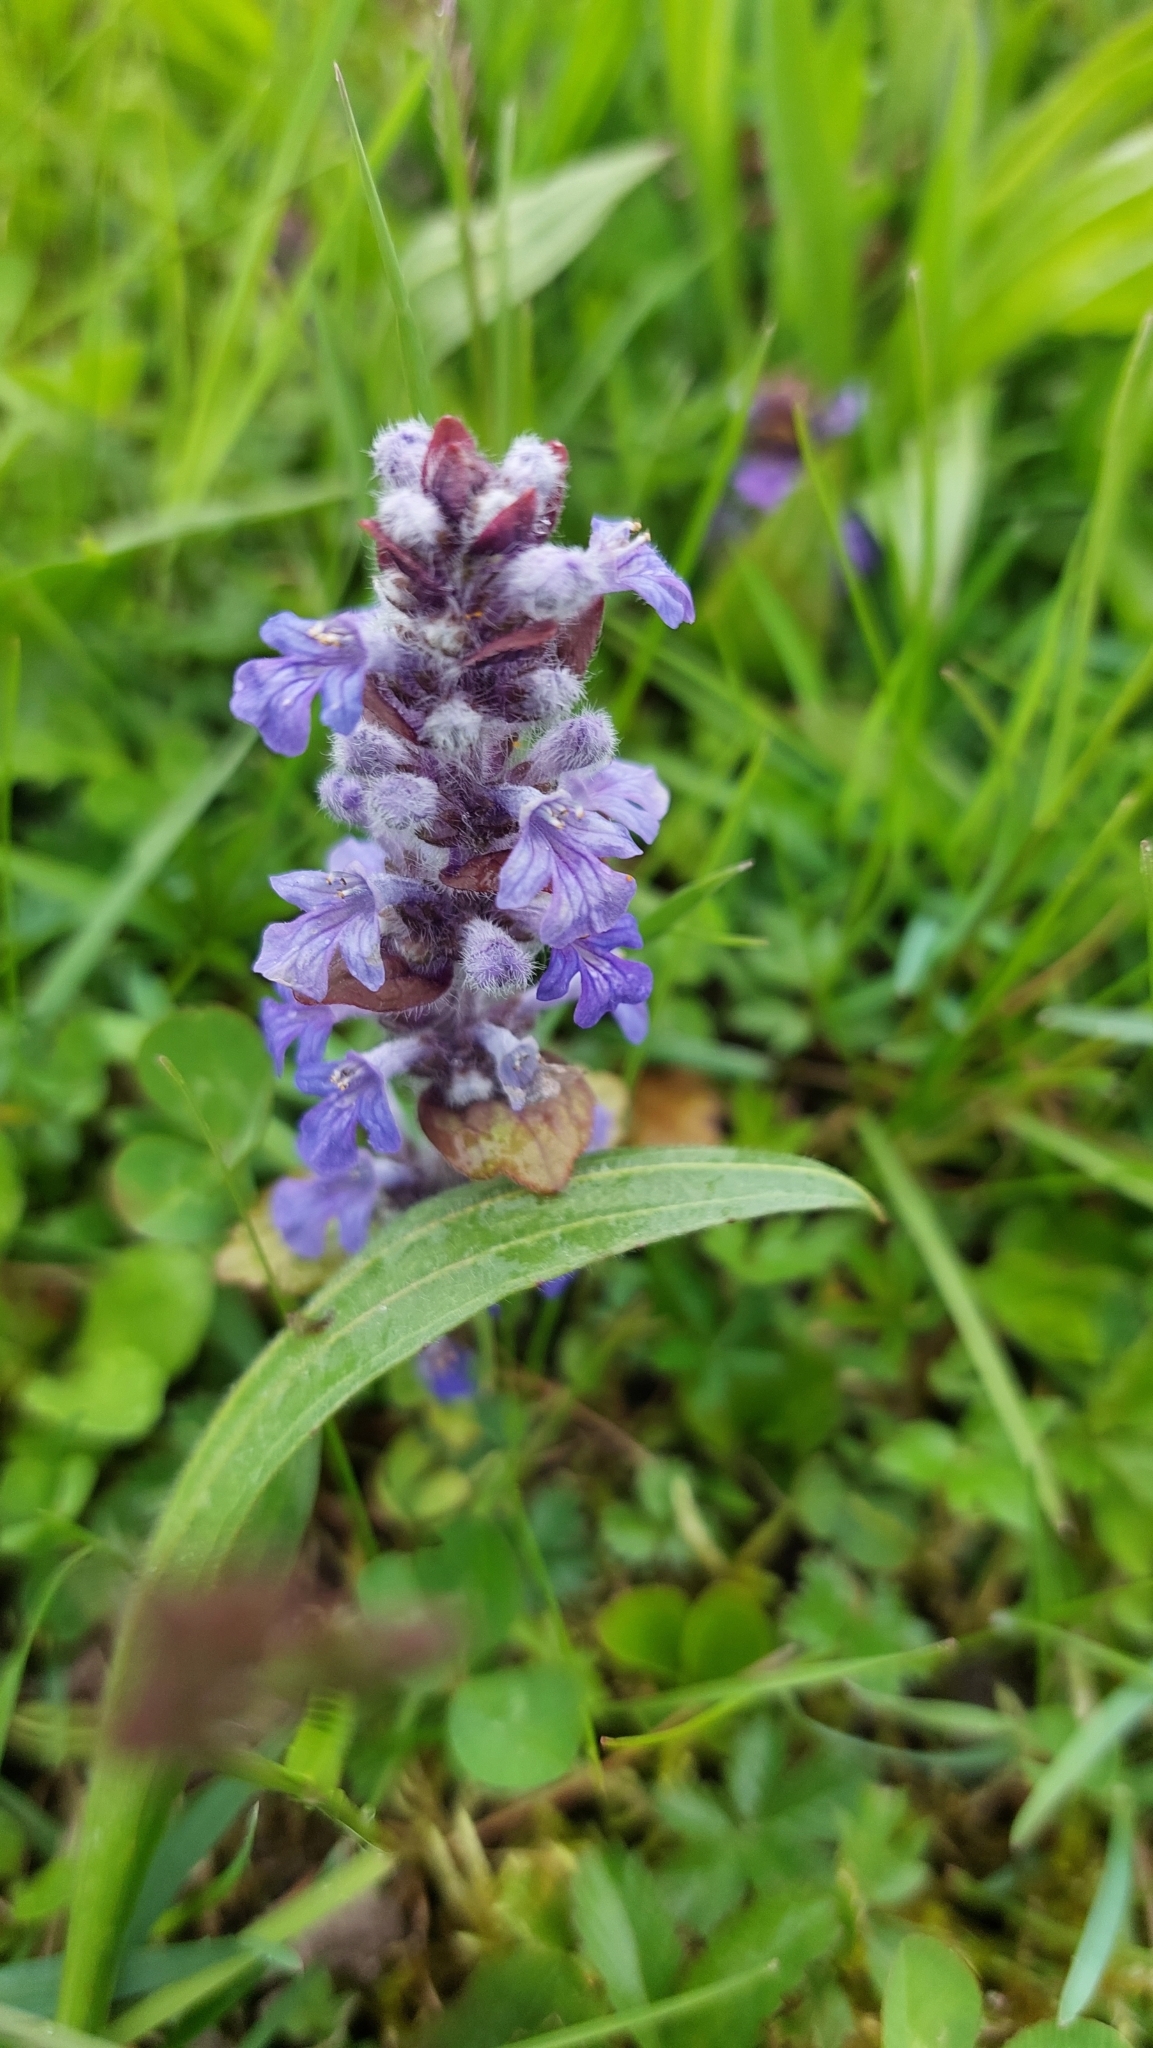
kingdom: Plantae
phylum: Tracheophyta
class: Magnoliopsida
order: Lamiales
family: Lamiaceae
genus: Ajuga
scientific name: Ajuga reptans
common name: Bugle
